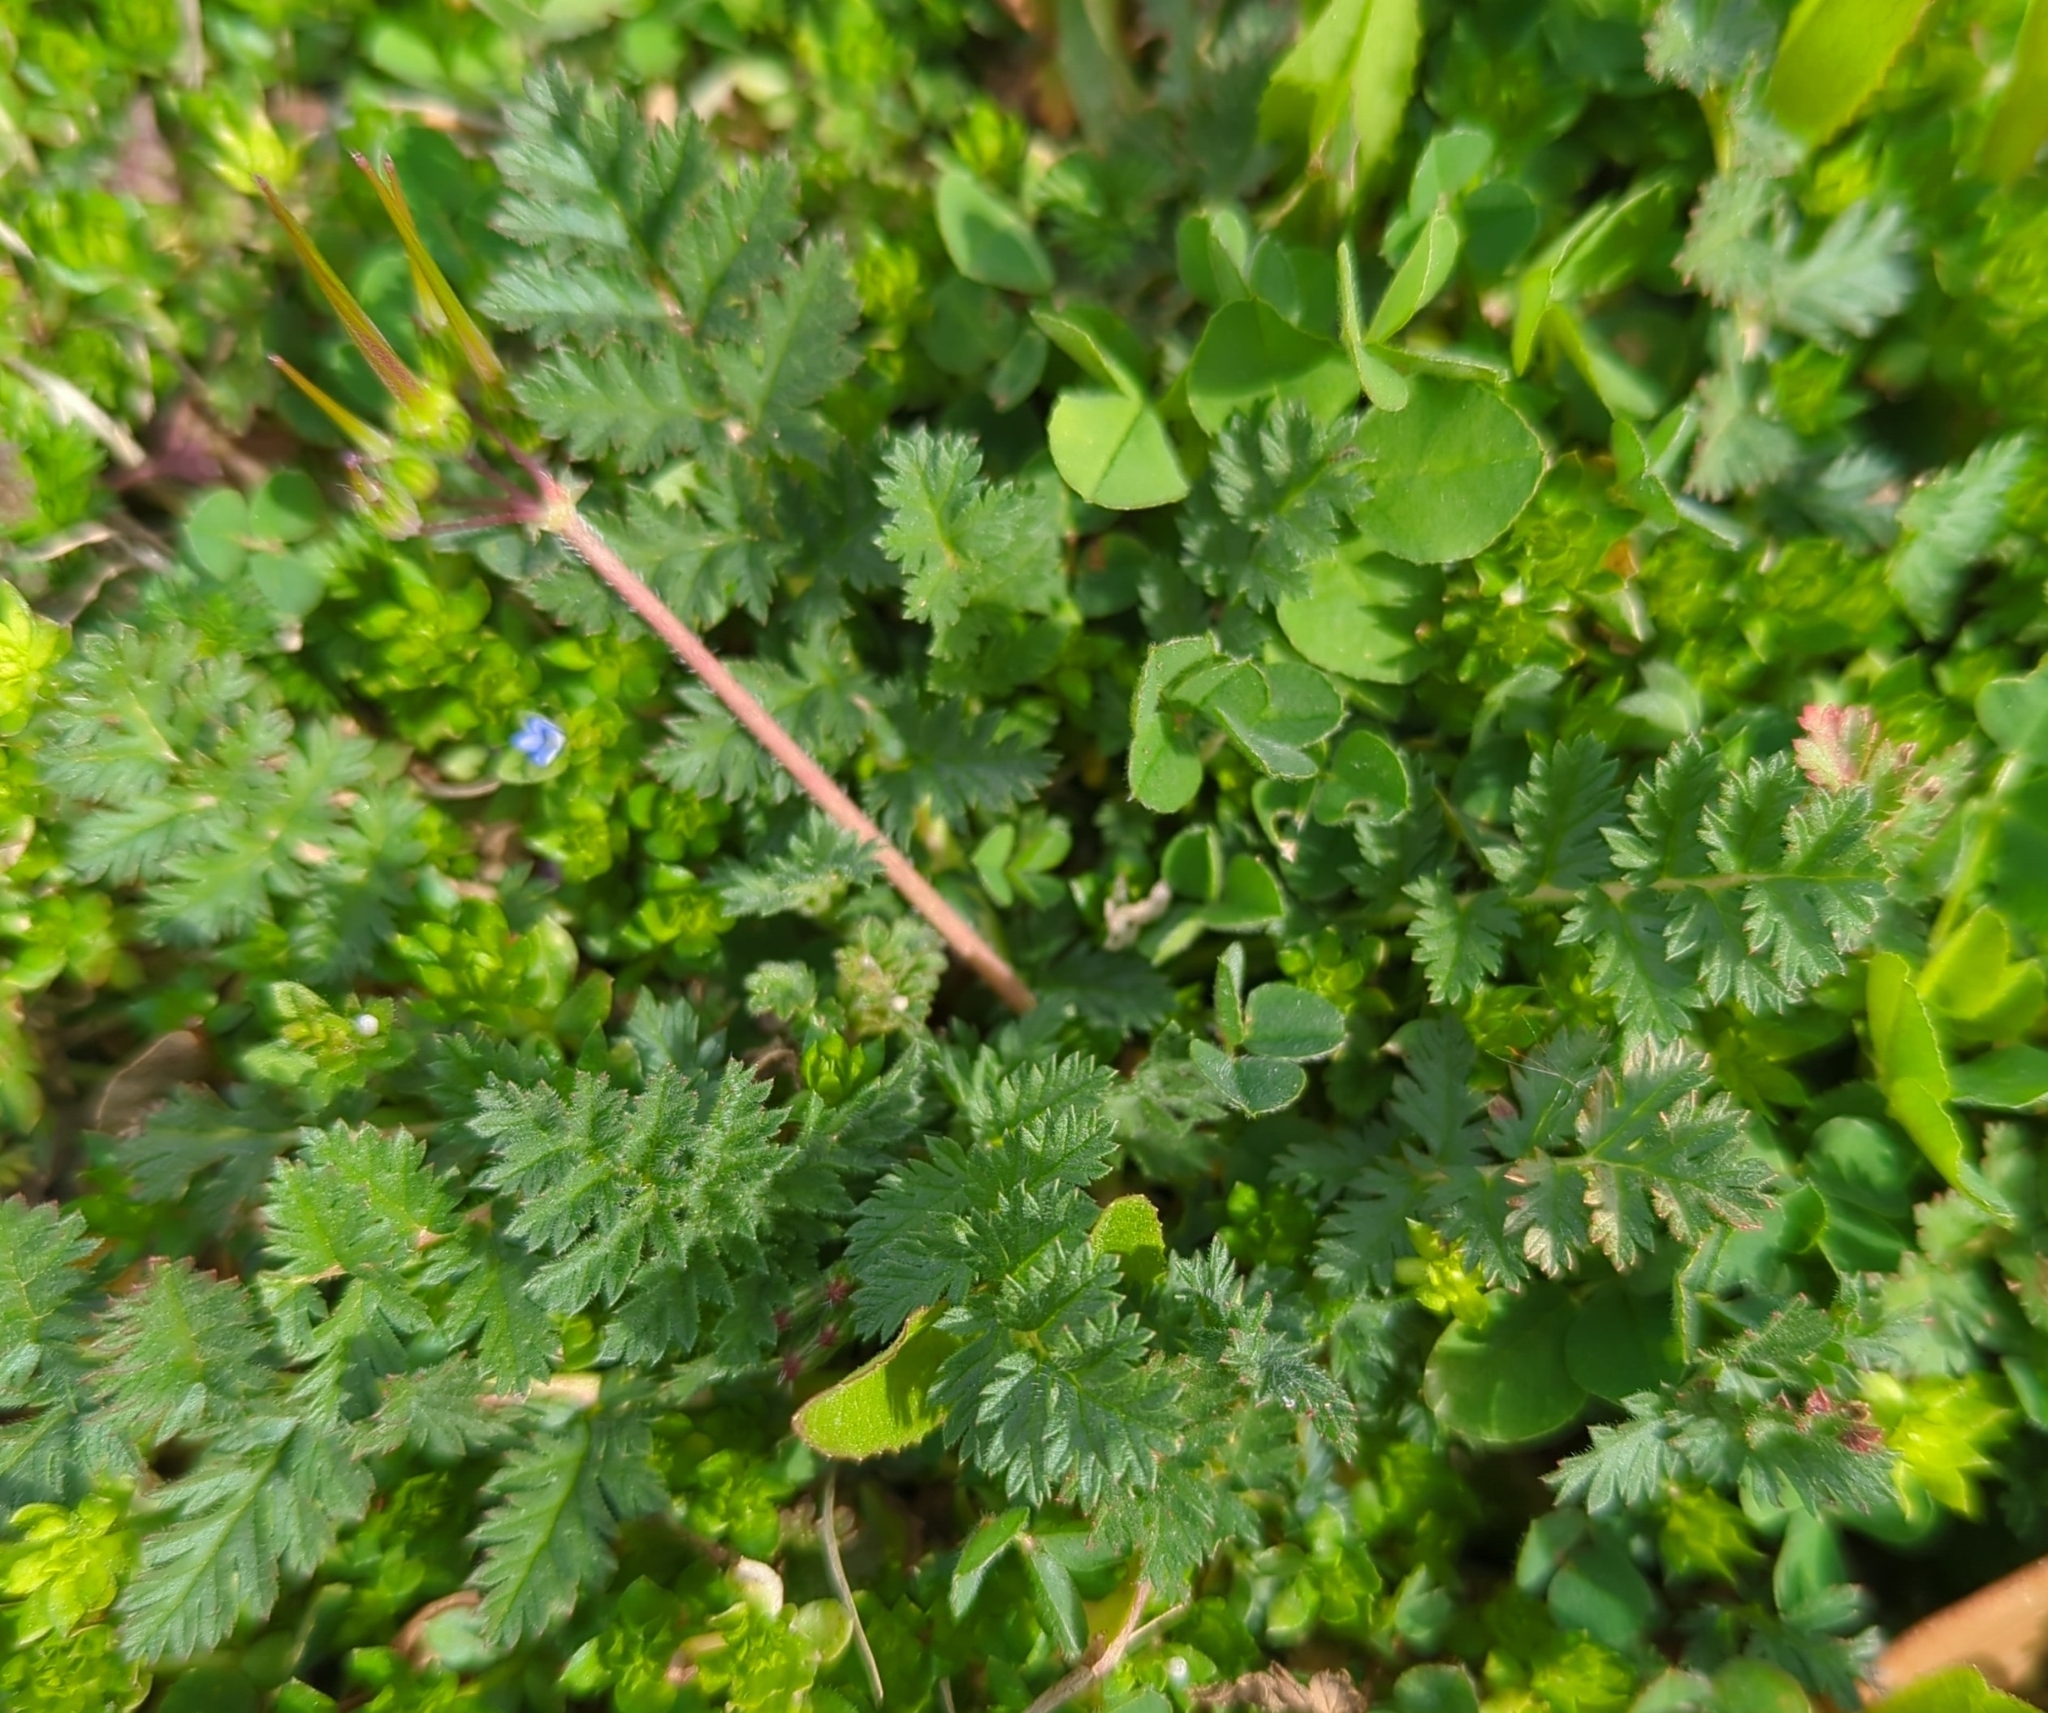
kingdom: Plantae
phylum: Tracheophyta
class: Magnoliopsida
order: Geraniales
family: Geraniaceae
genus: Erodium
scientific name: Erodium cicutarium
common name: Common stork's-bill
